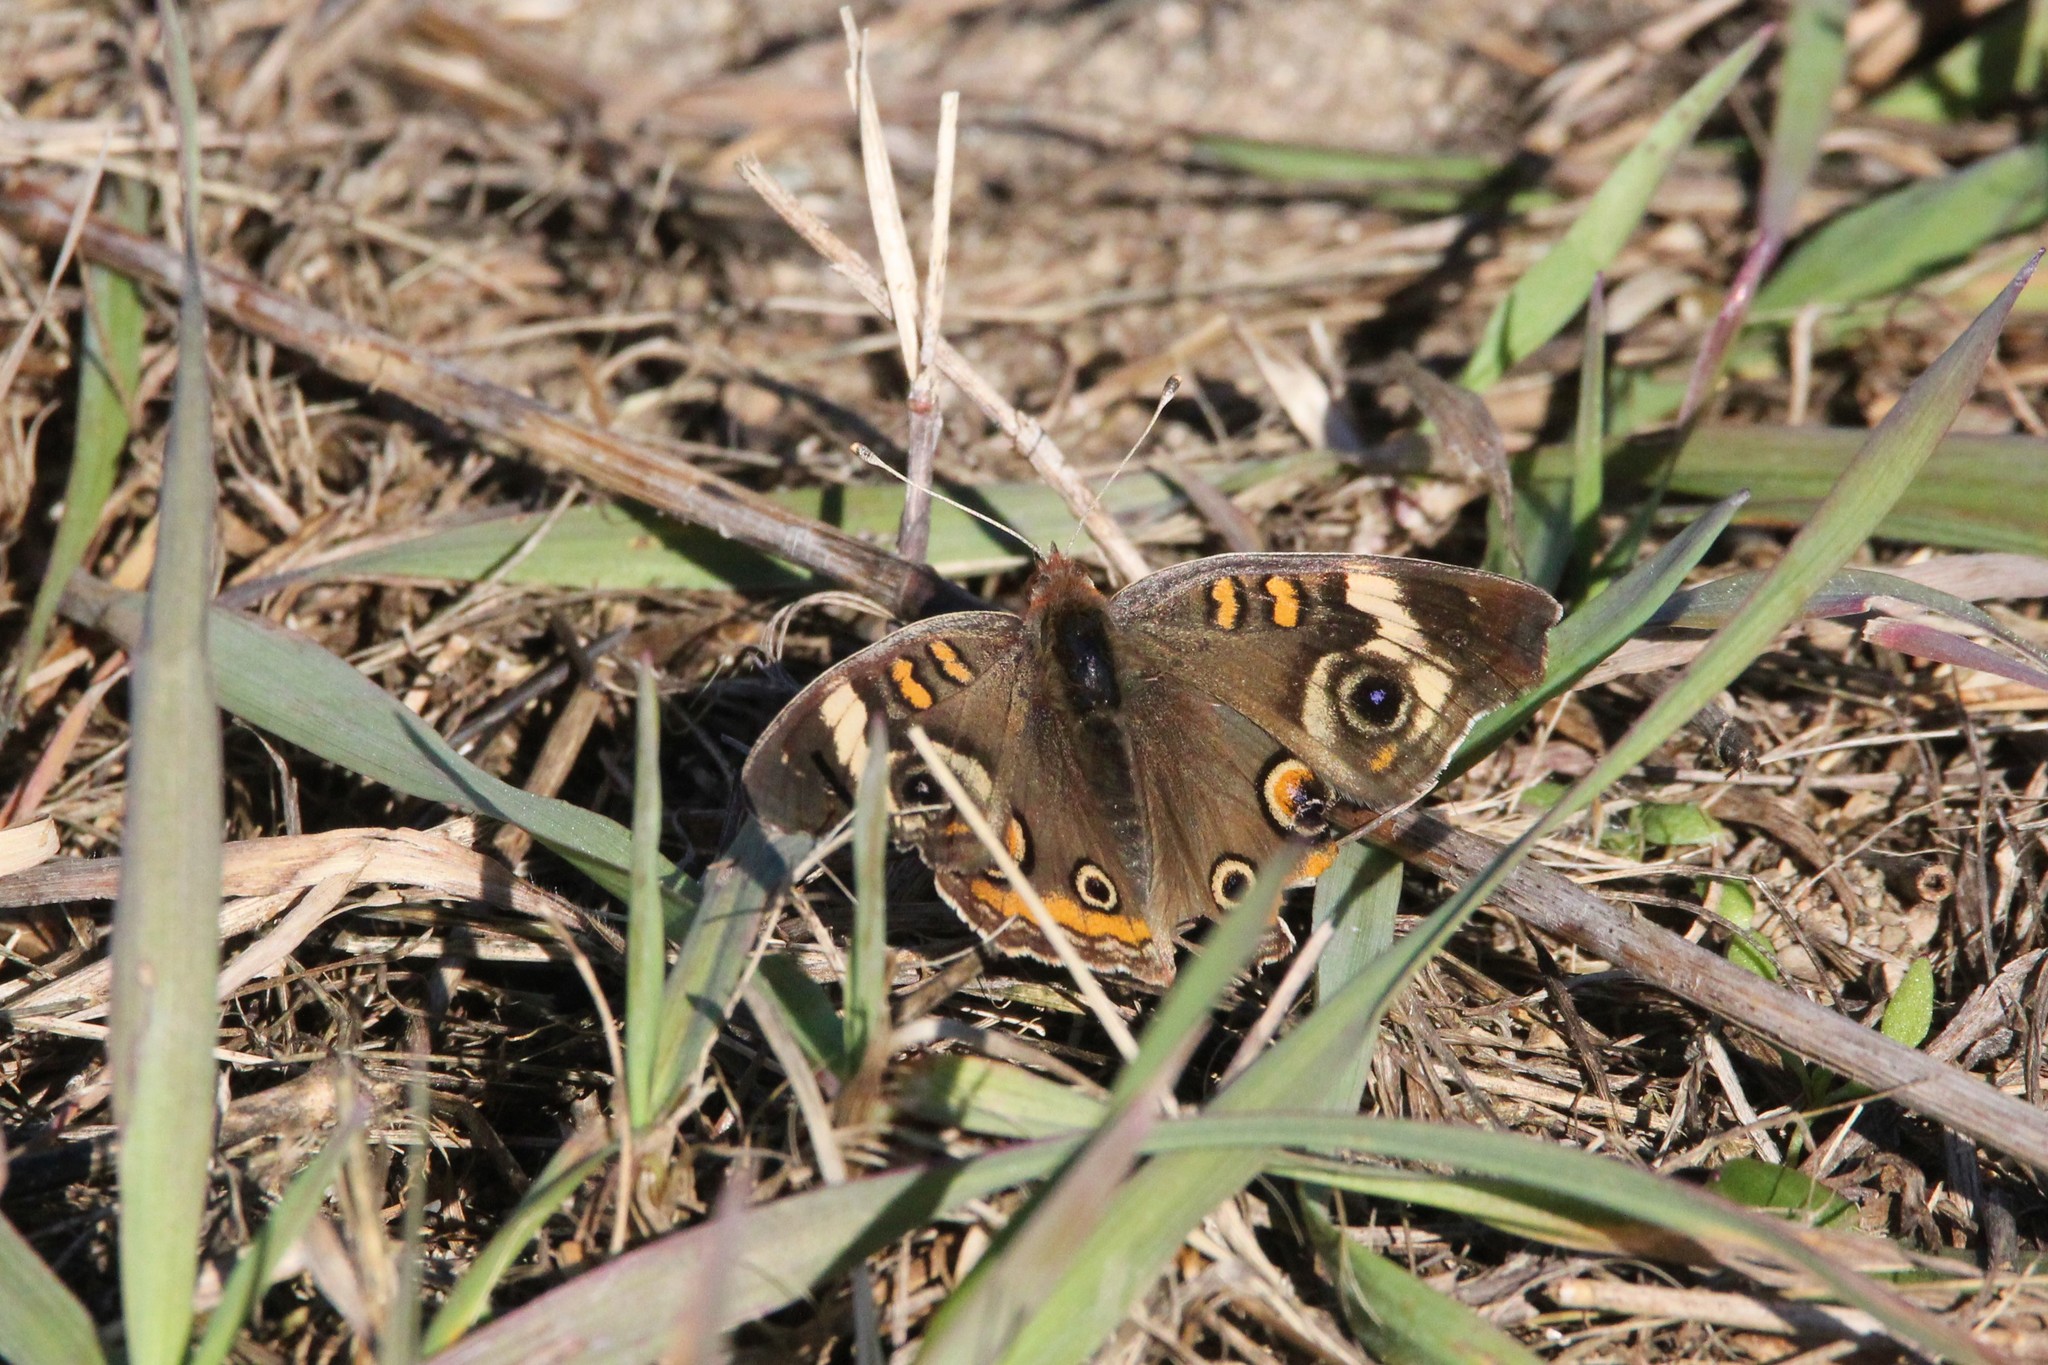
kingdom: Animalia
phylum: Arthropoda
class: Insecta
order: Lepidoptera
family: Nymphalidae
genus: Junonia
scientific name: Junonia coenia
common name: Common buckeye
